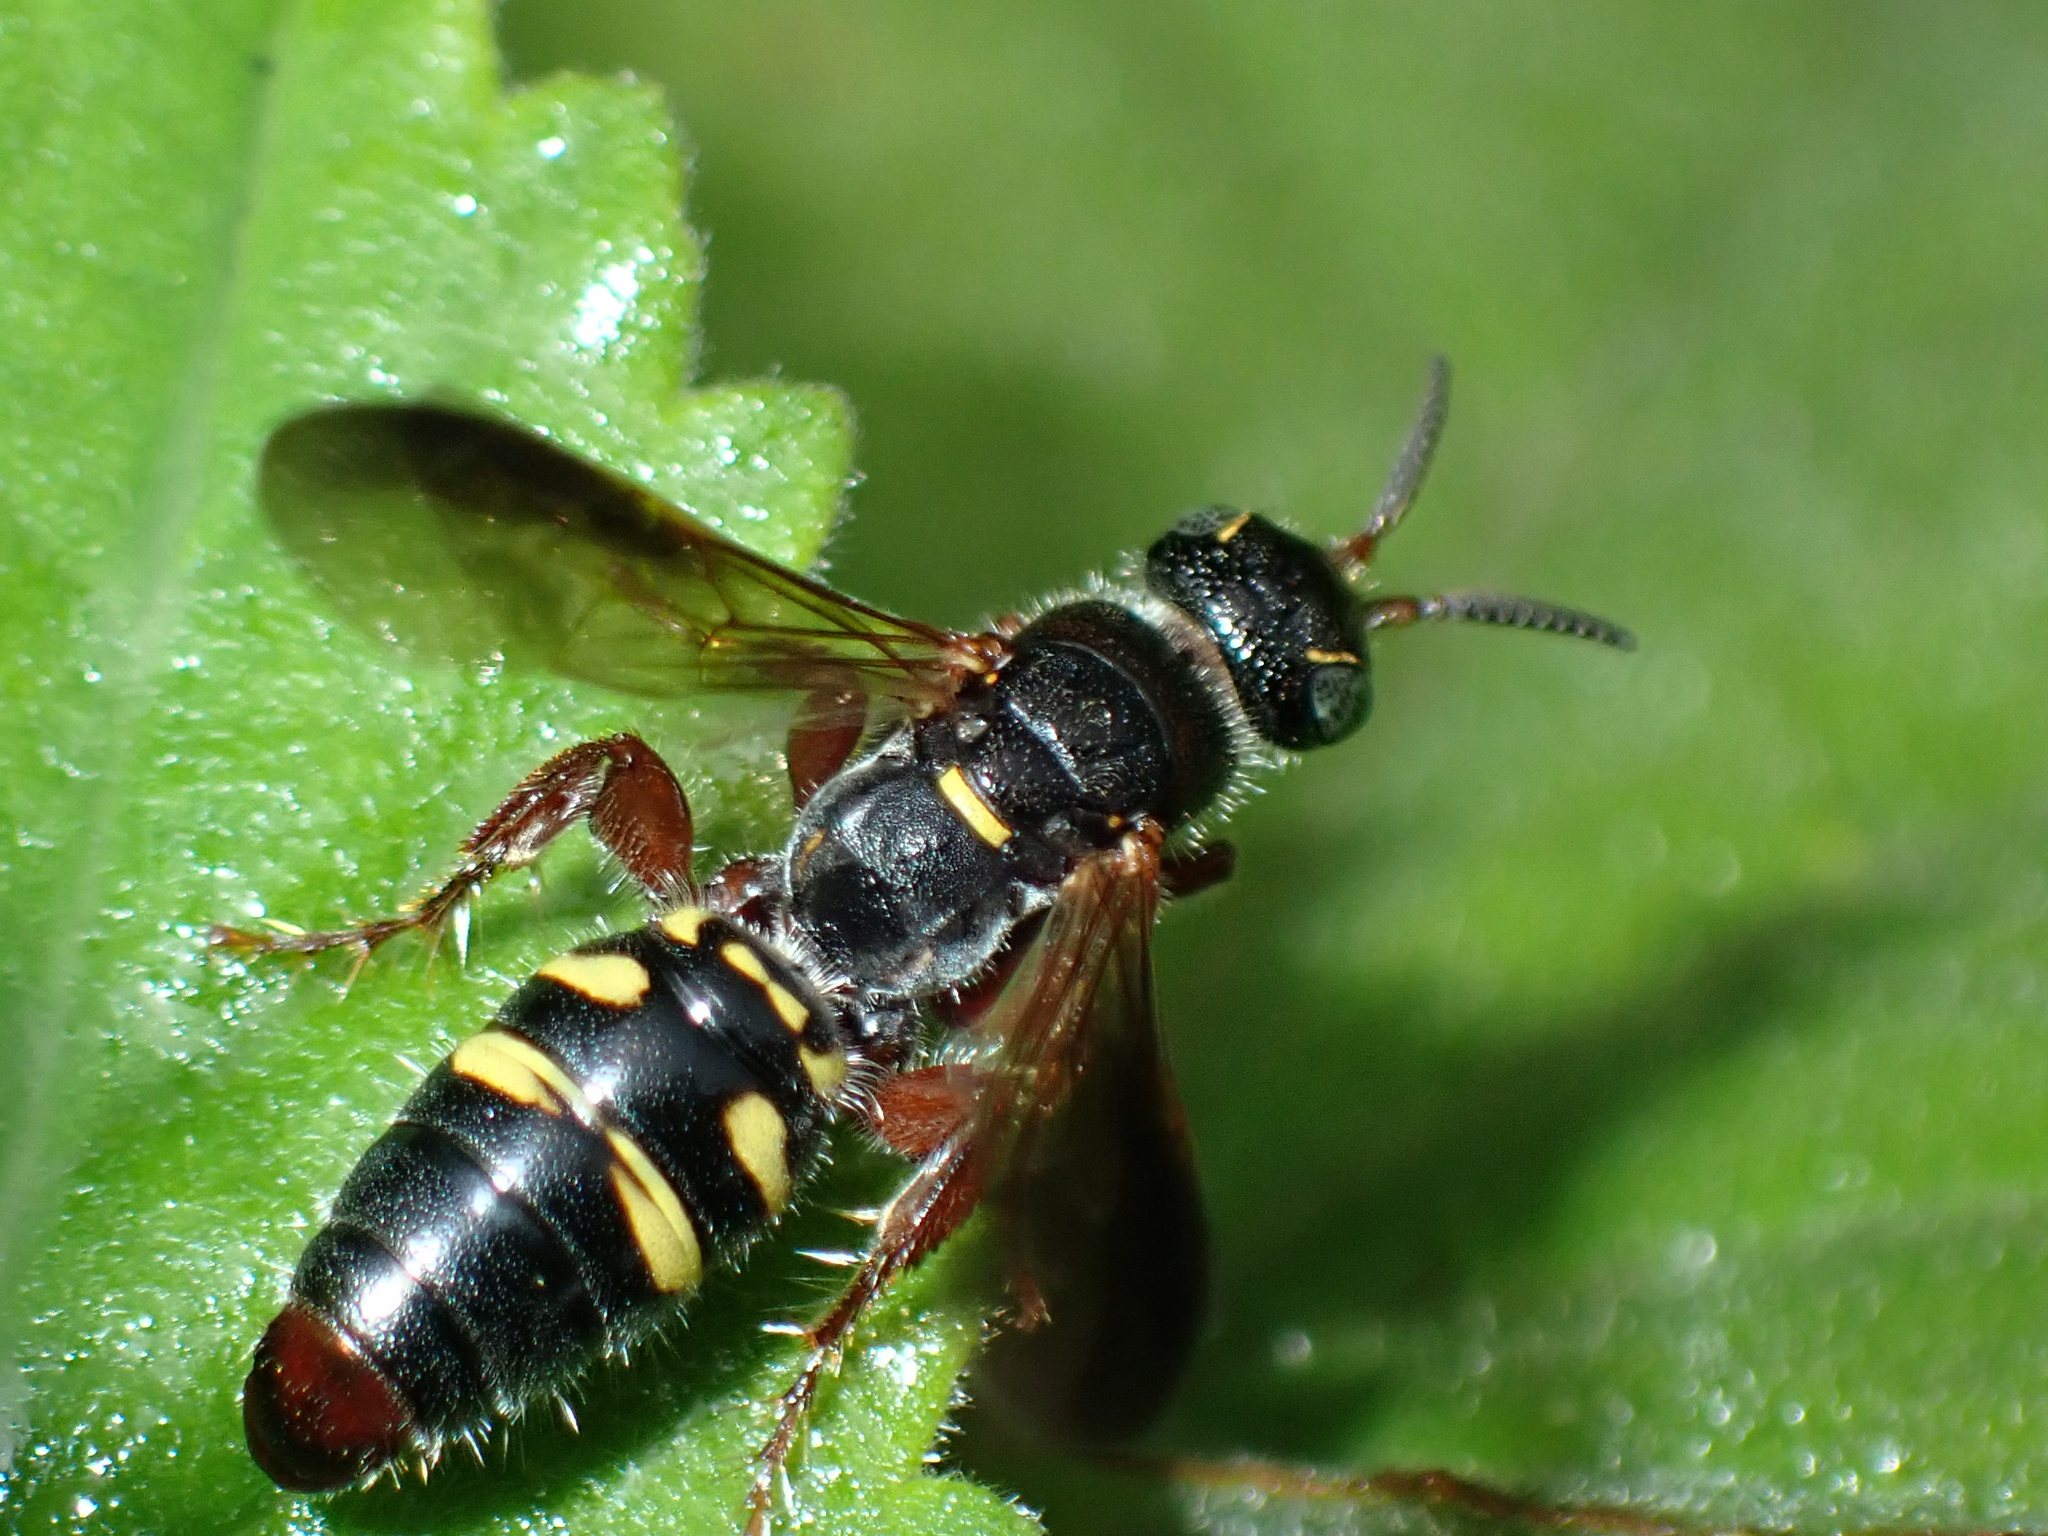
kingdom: Animalia
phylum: Arthropoda
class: Insecta
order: Hymenoptera
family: Tiphiidae
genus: Myzinum
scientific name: Myzinum dubiosum
